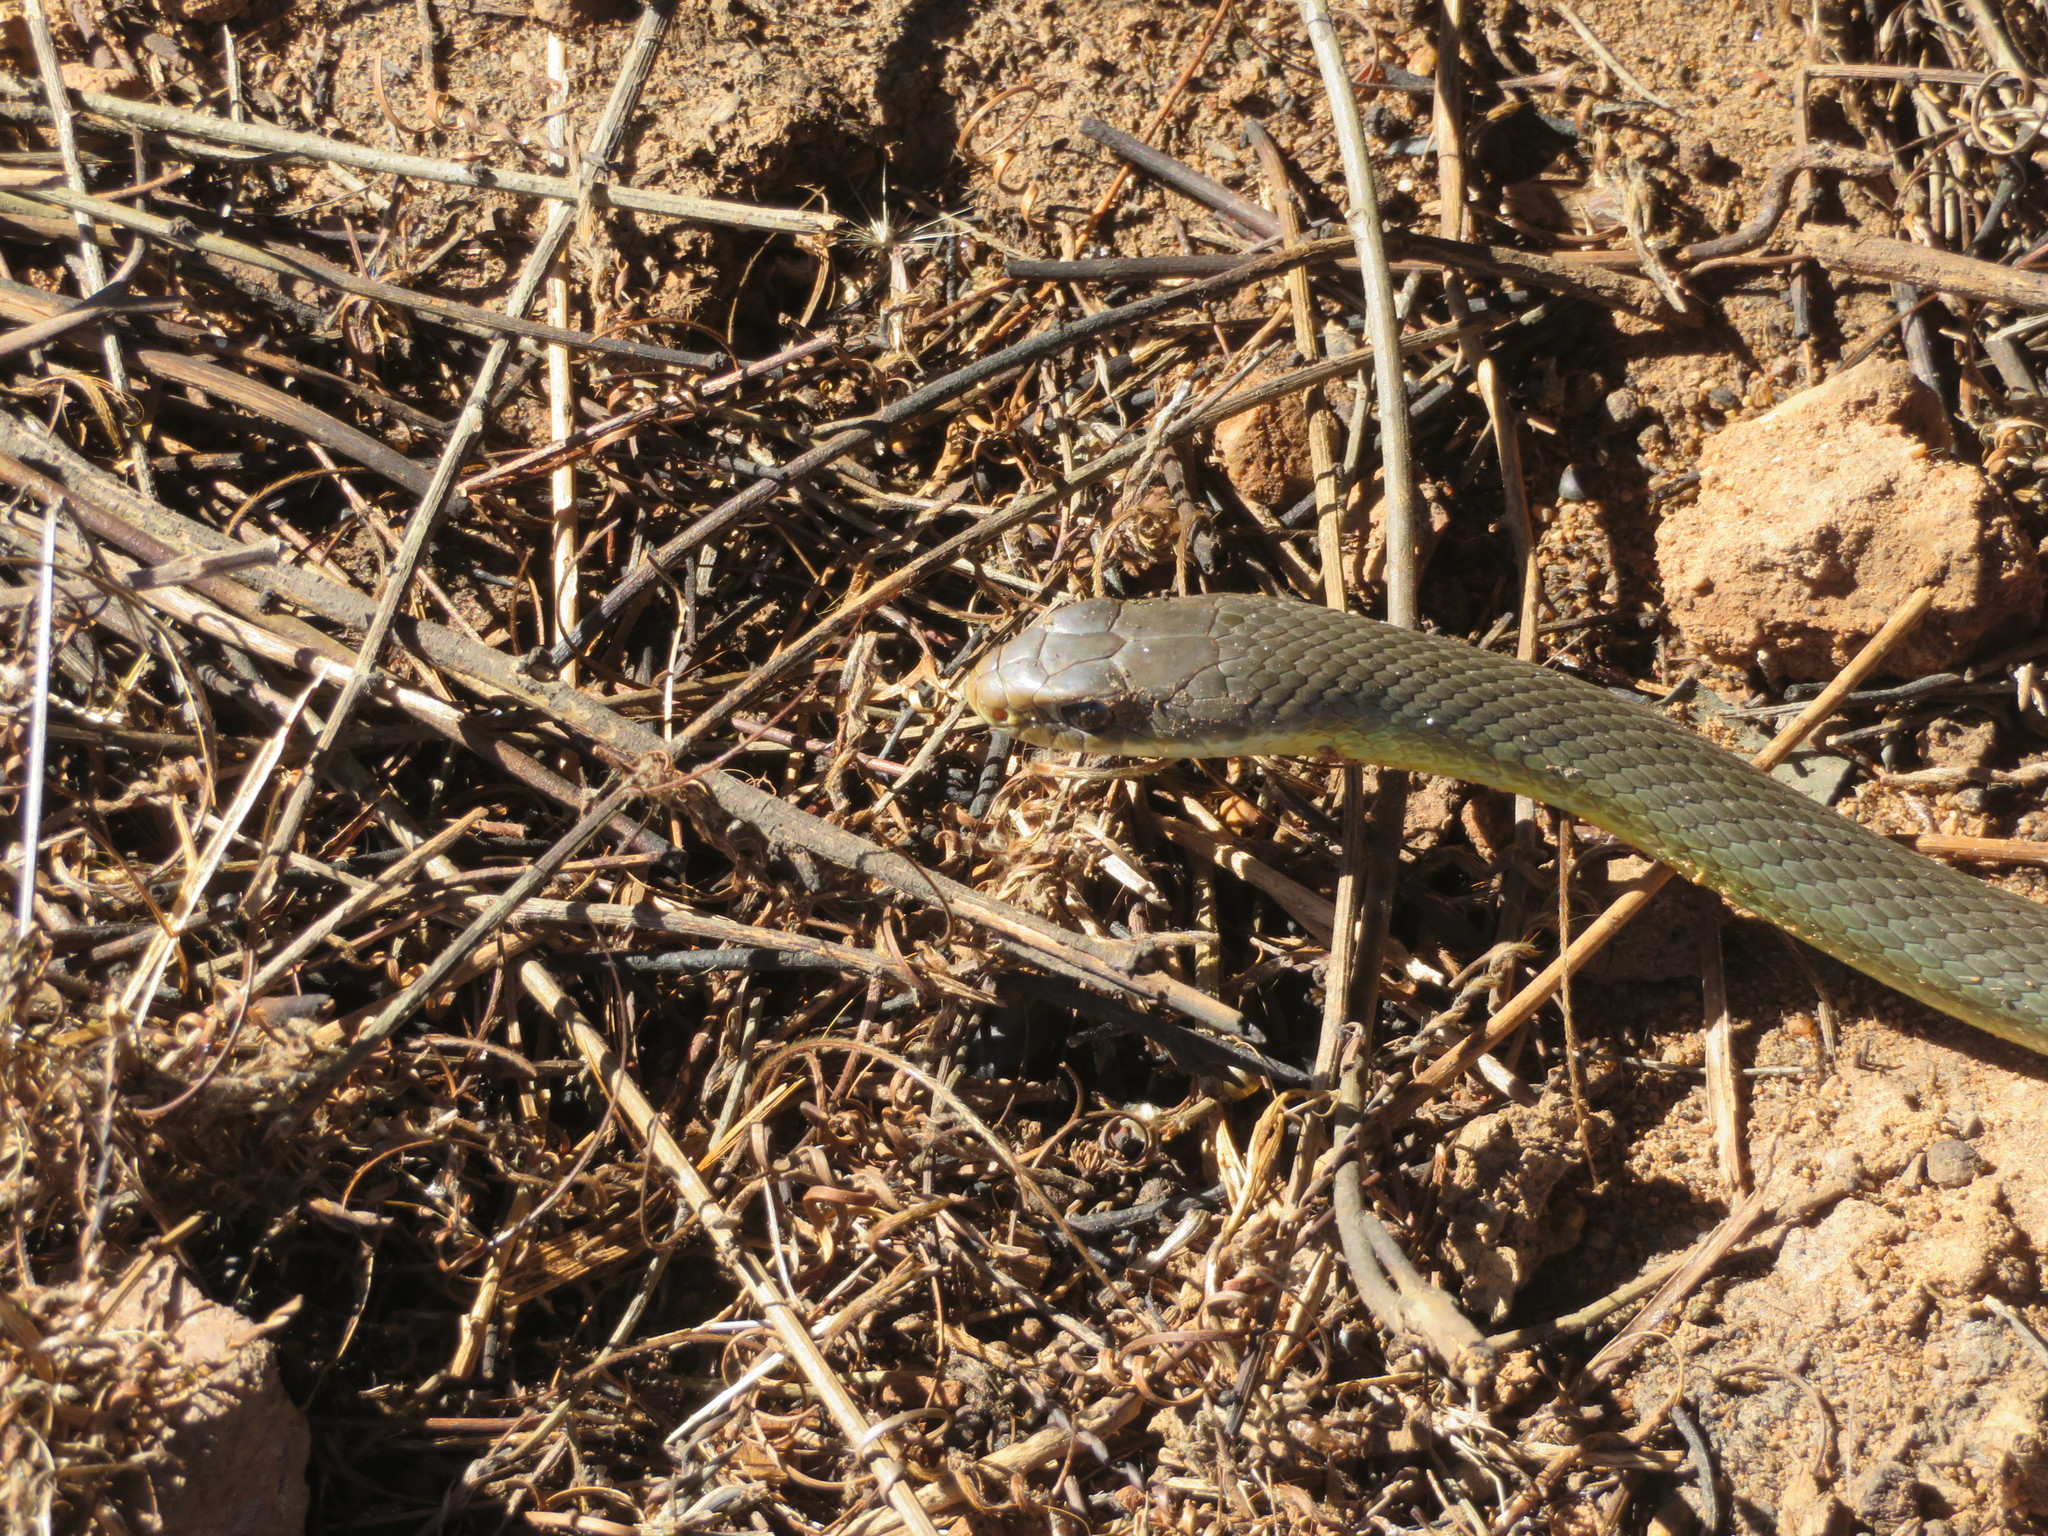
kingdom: Animalia
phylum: Chordata
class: Squamata
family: Colubridae
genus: Coluber
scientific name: Coluber constrictor
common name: Eastern racer
